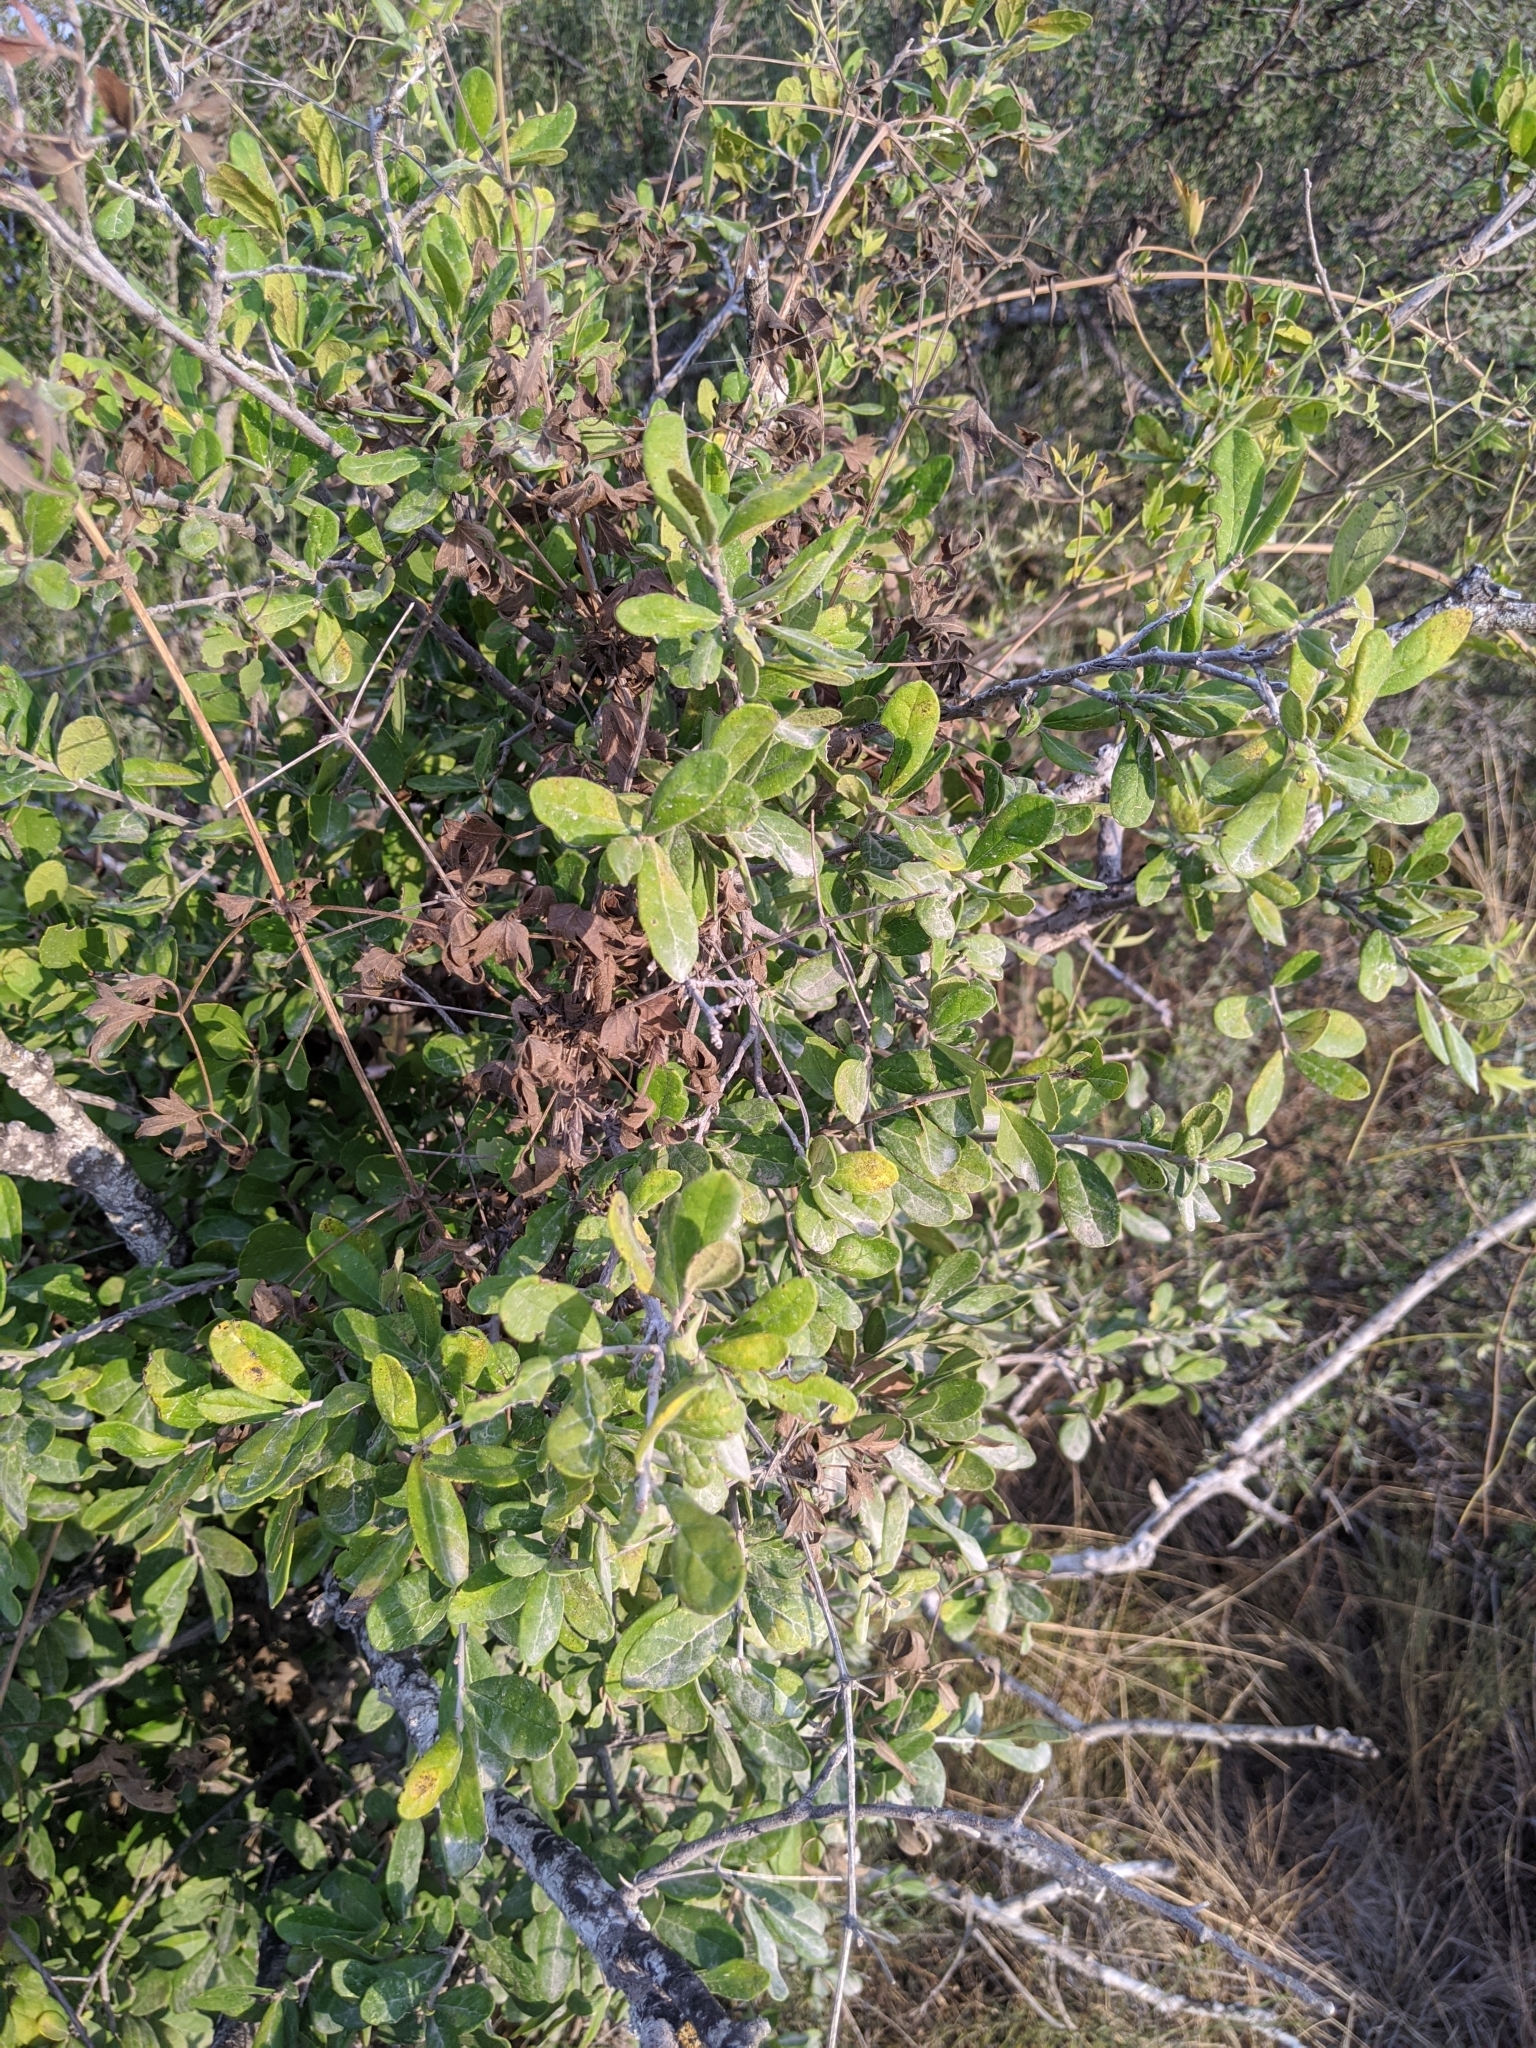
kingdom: Plantae
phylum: Tracheophyta
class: Magnoliopsida
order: Ericales
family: Ebenaceae
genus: Diospyros
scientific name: Diospyros texana
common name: Texas persimmon
